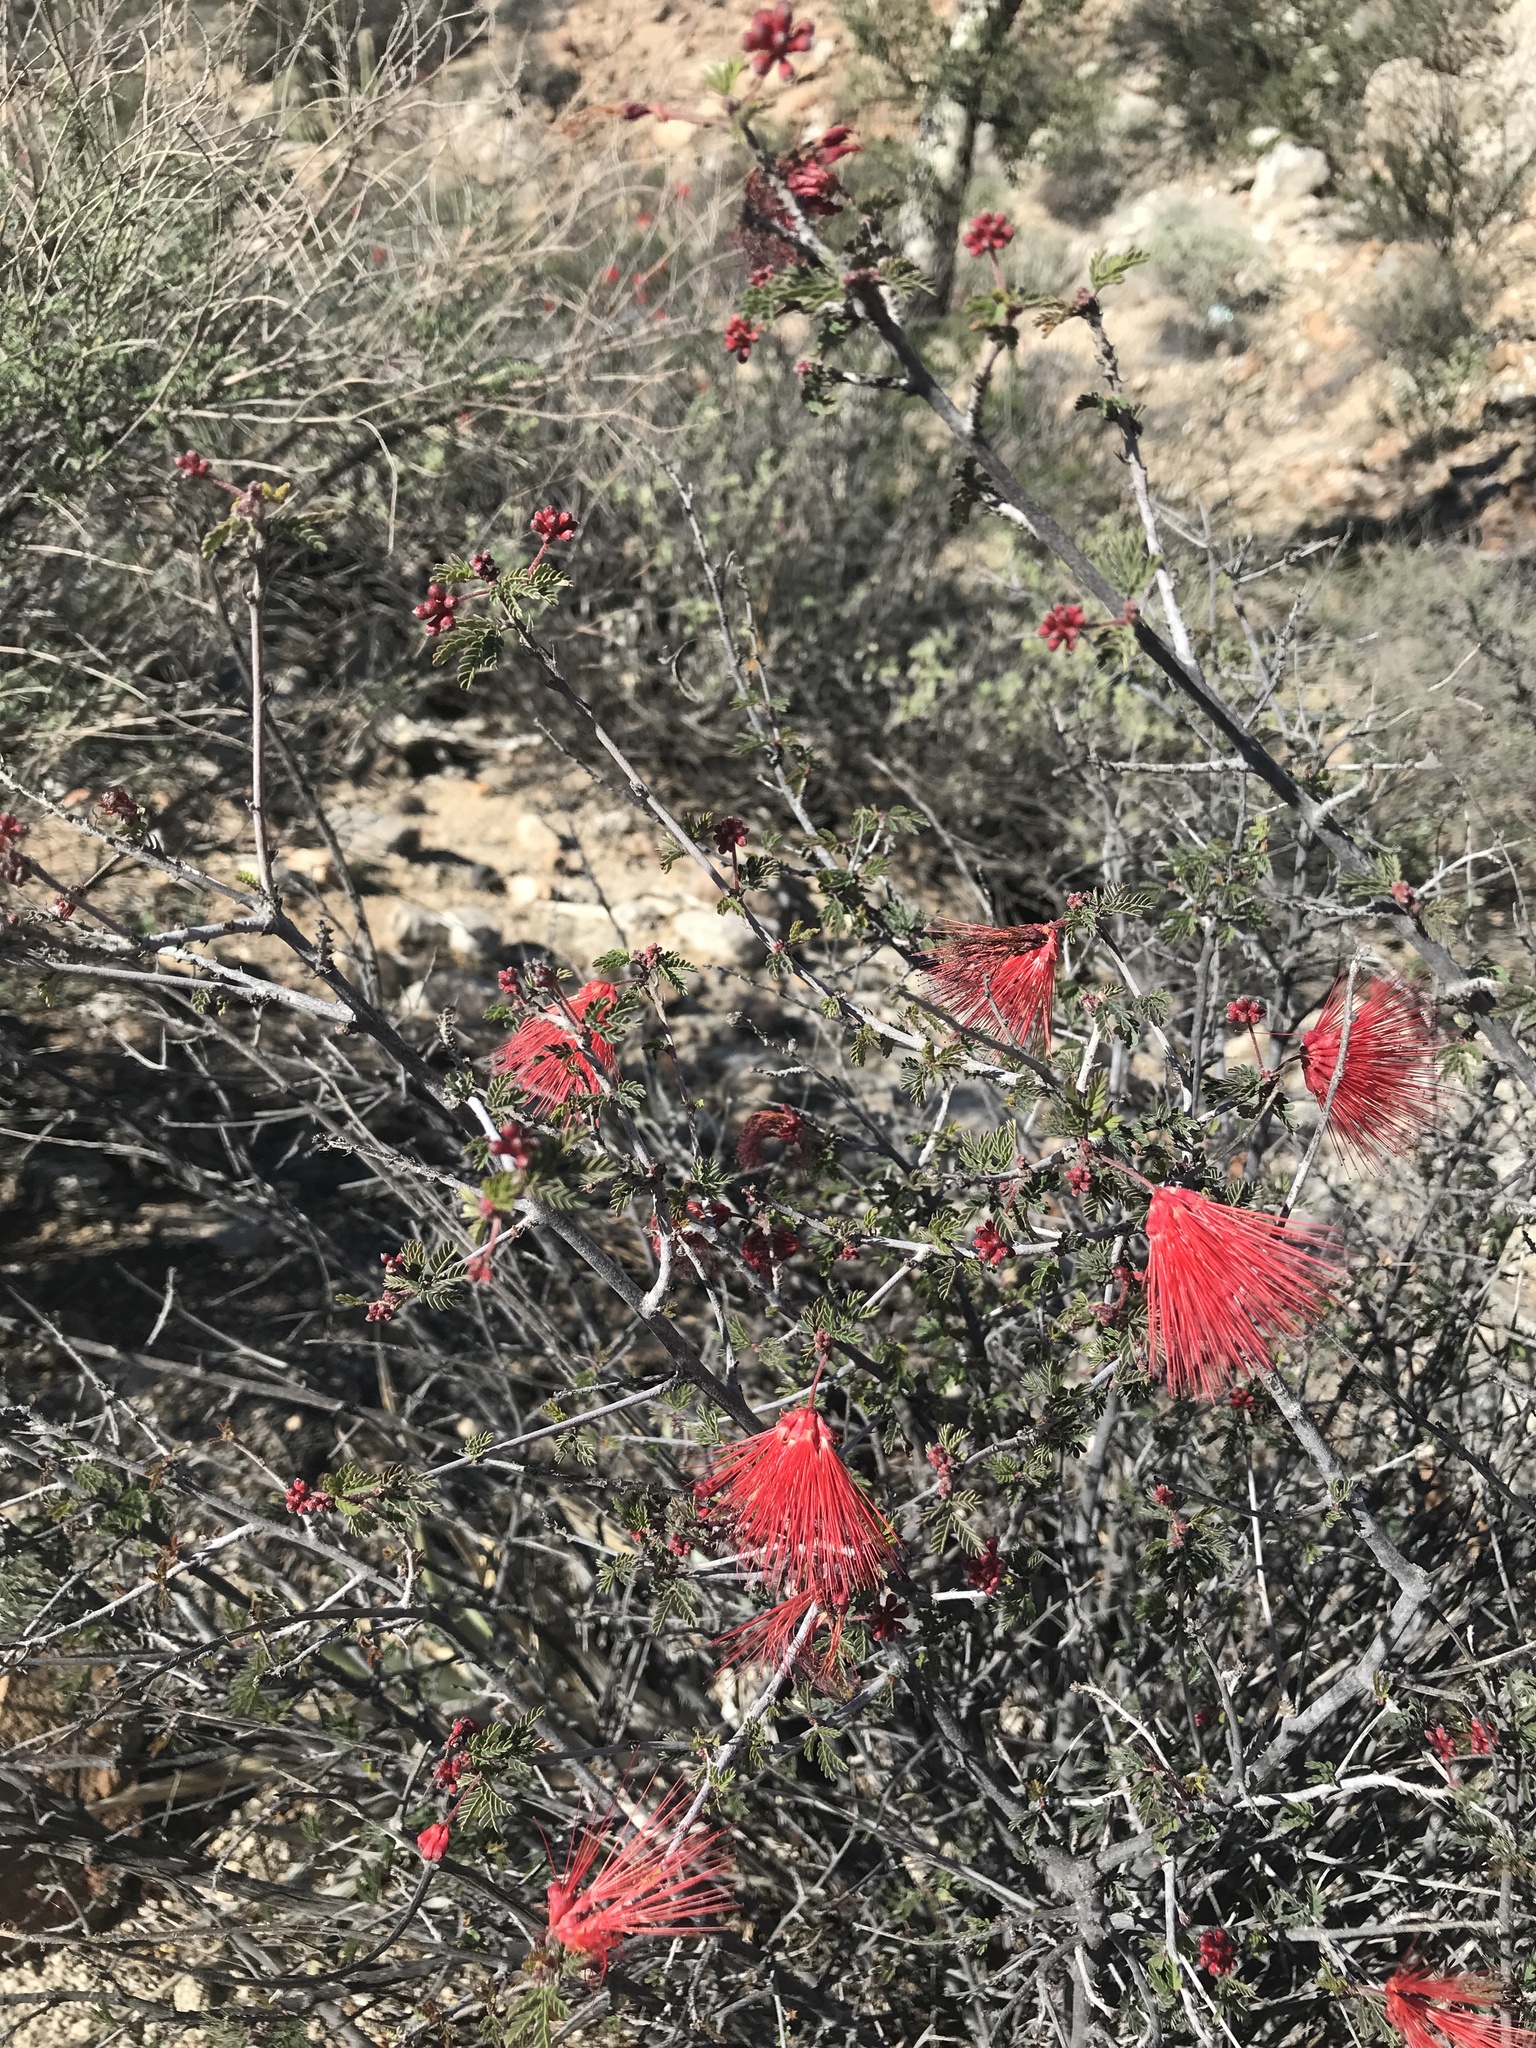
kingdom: Plantae
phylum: Tracheophyta
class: Magnoliopsida
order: Fabales
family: Fabaceae
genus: Calliandra
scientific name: Calliandra californica
